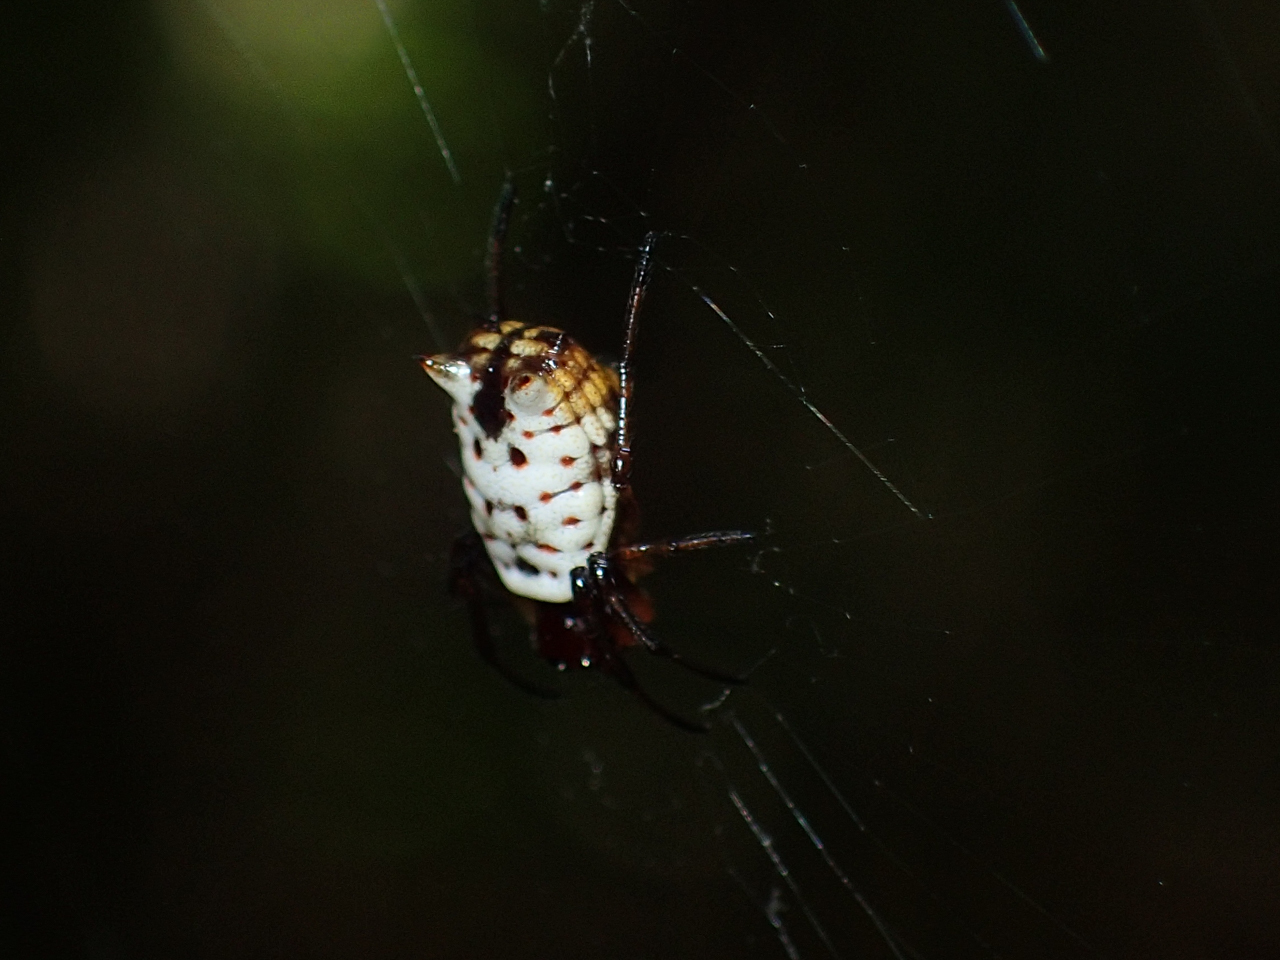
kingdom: Animalia
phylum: Arthropoda
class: Arachnida
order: Araneae
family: Araneidae
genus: Micrathena
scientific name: Micrathena mitrata
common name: Orb weavers
